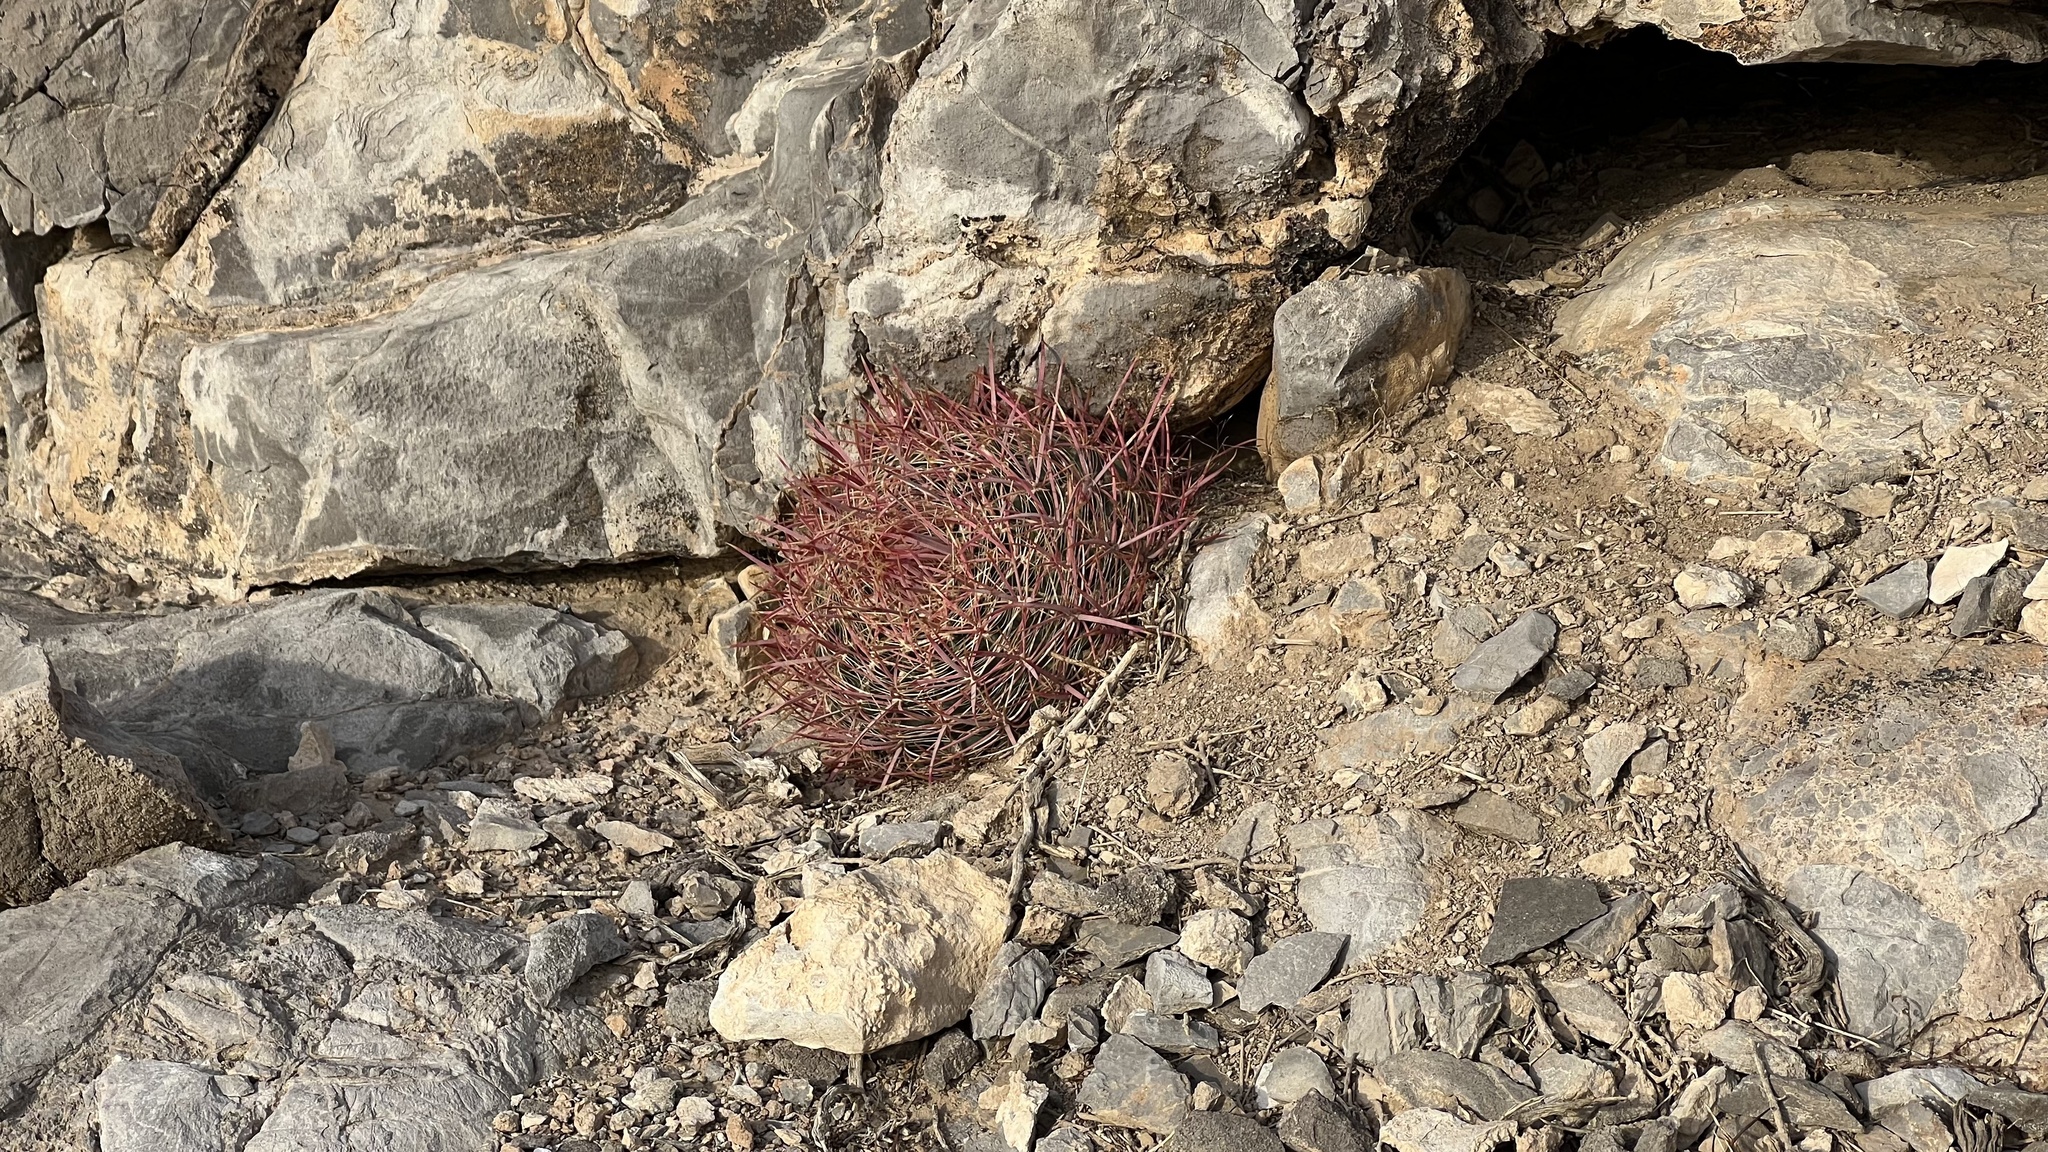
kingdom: Plantae
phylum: Tracheophyta
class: Magnoliopsida
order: Caryophyllales
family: Cactaceae
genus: Ferocactus
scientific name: Ferocactus cylindraceus
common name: California barrel cactus
